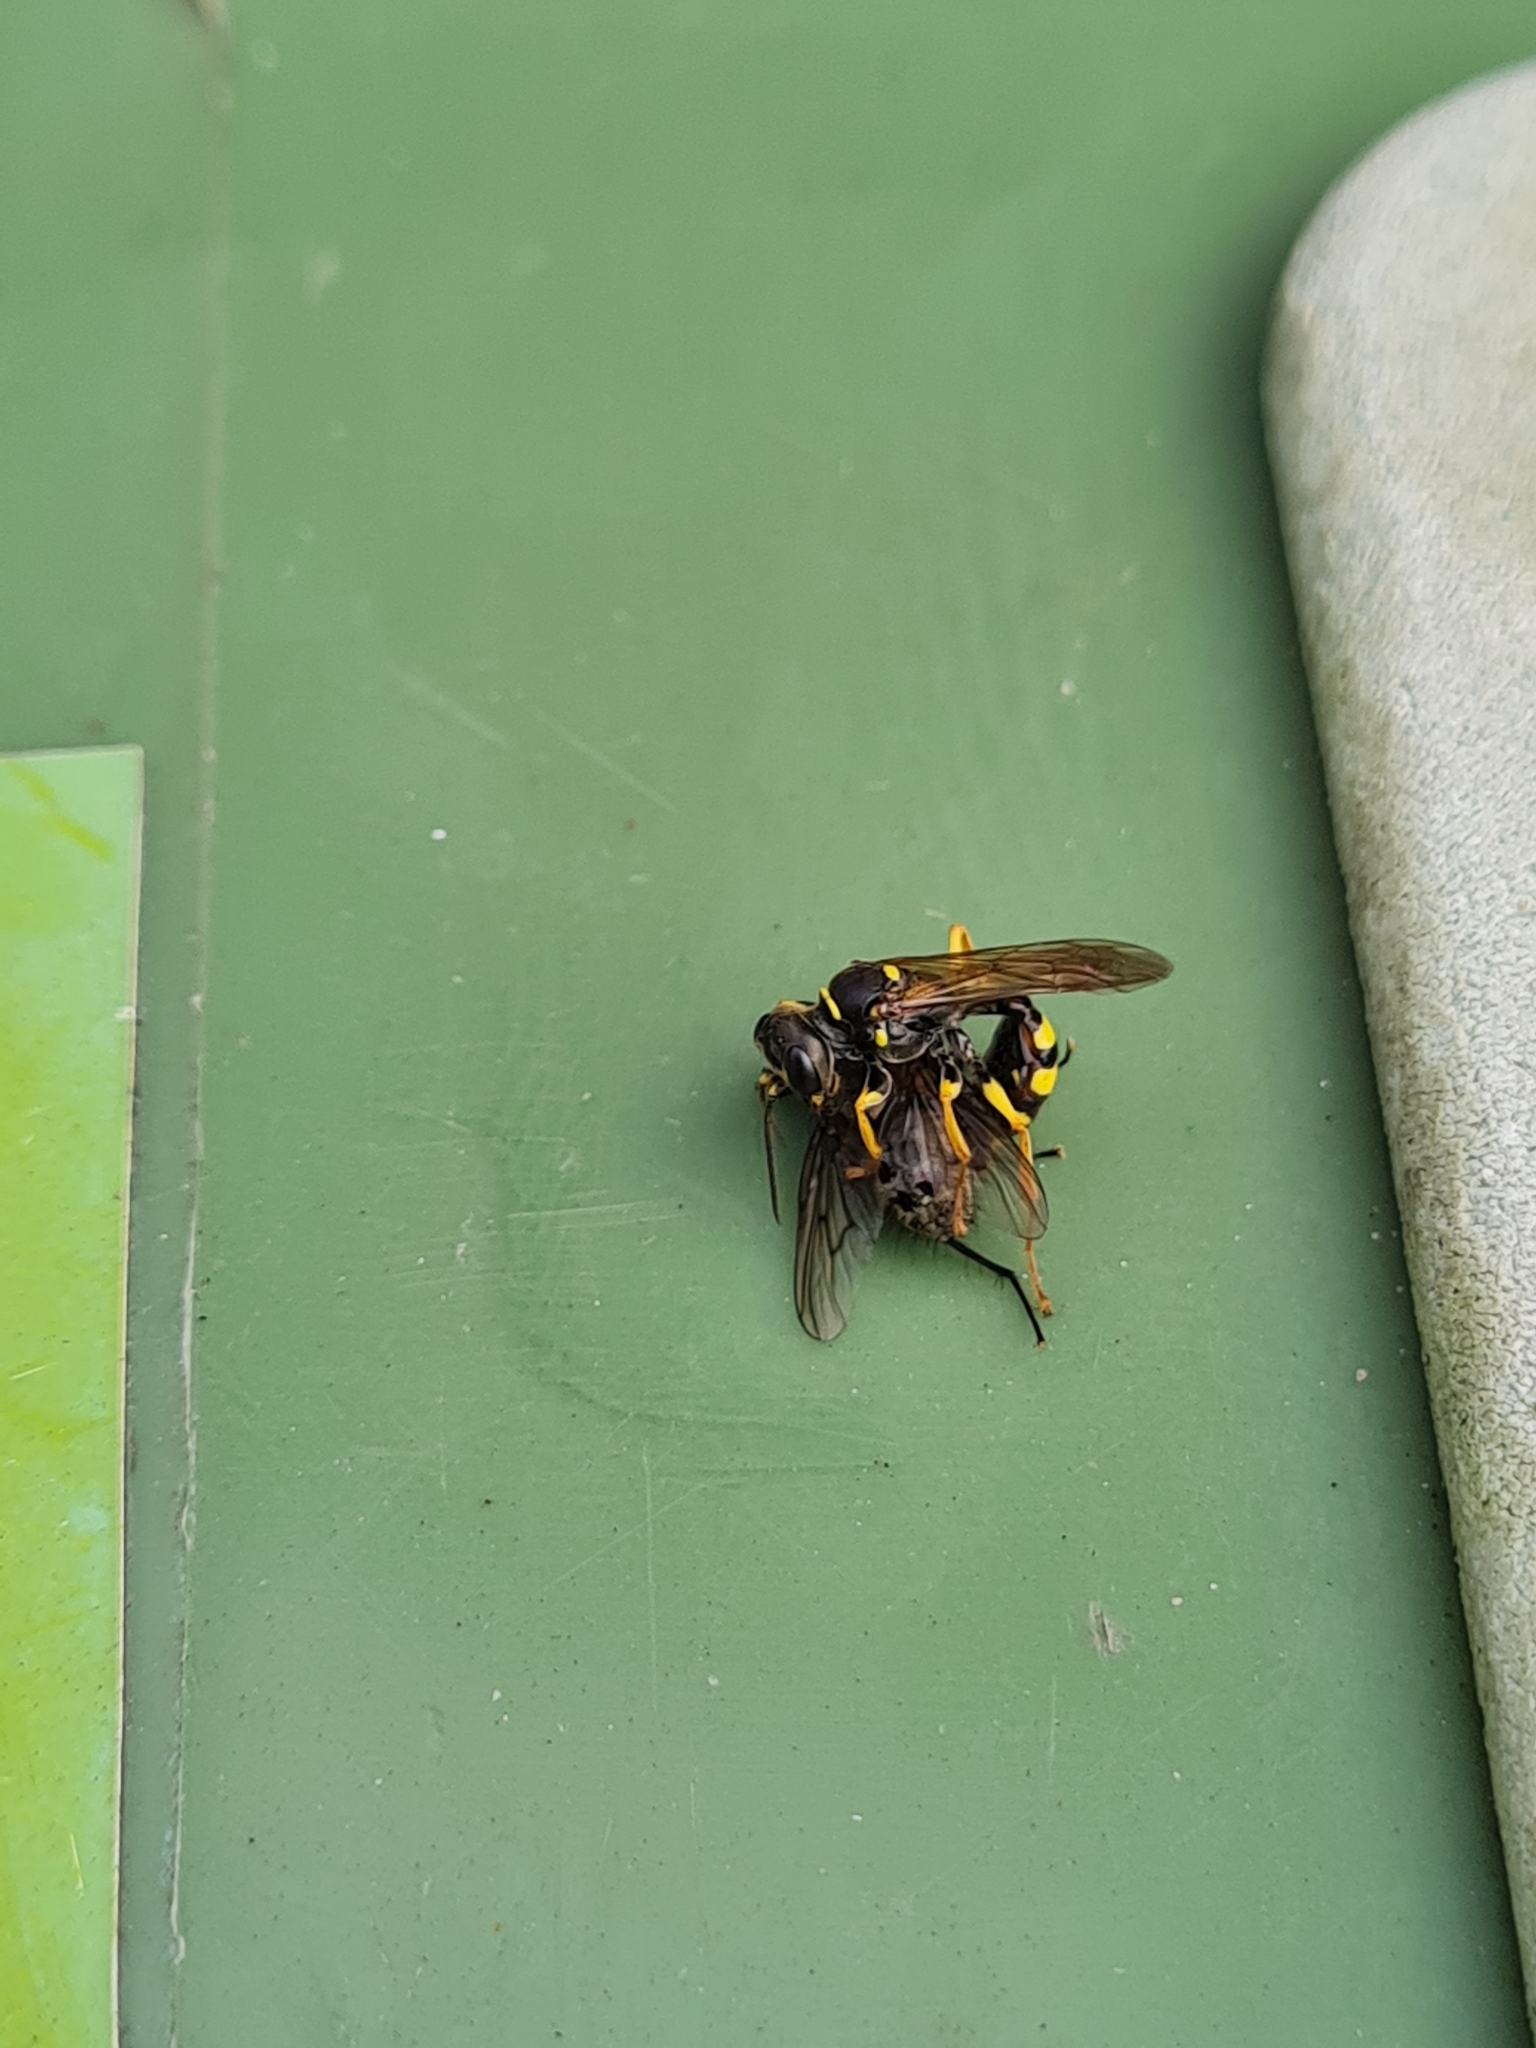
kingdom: Animalia
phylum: Arthropoda
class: Insecta
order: Hymenoptera
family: Crabronidae
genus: Mellinus
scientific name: Mellinus arvensis
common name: Field digger wasp
